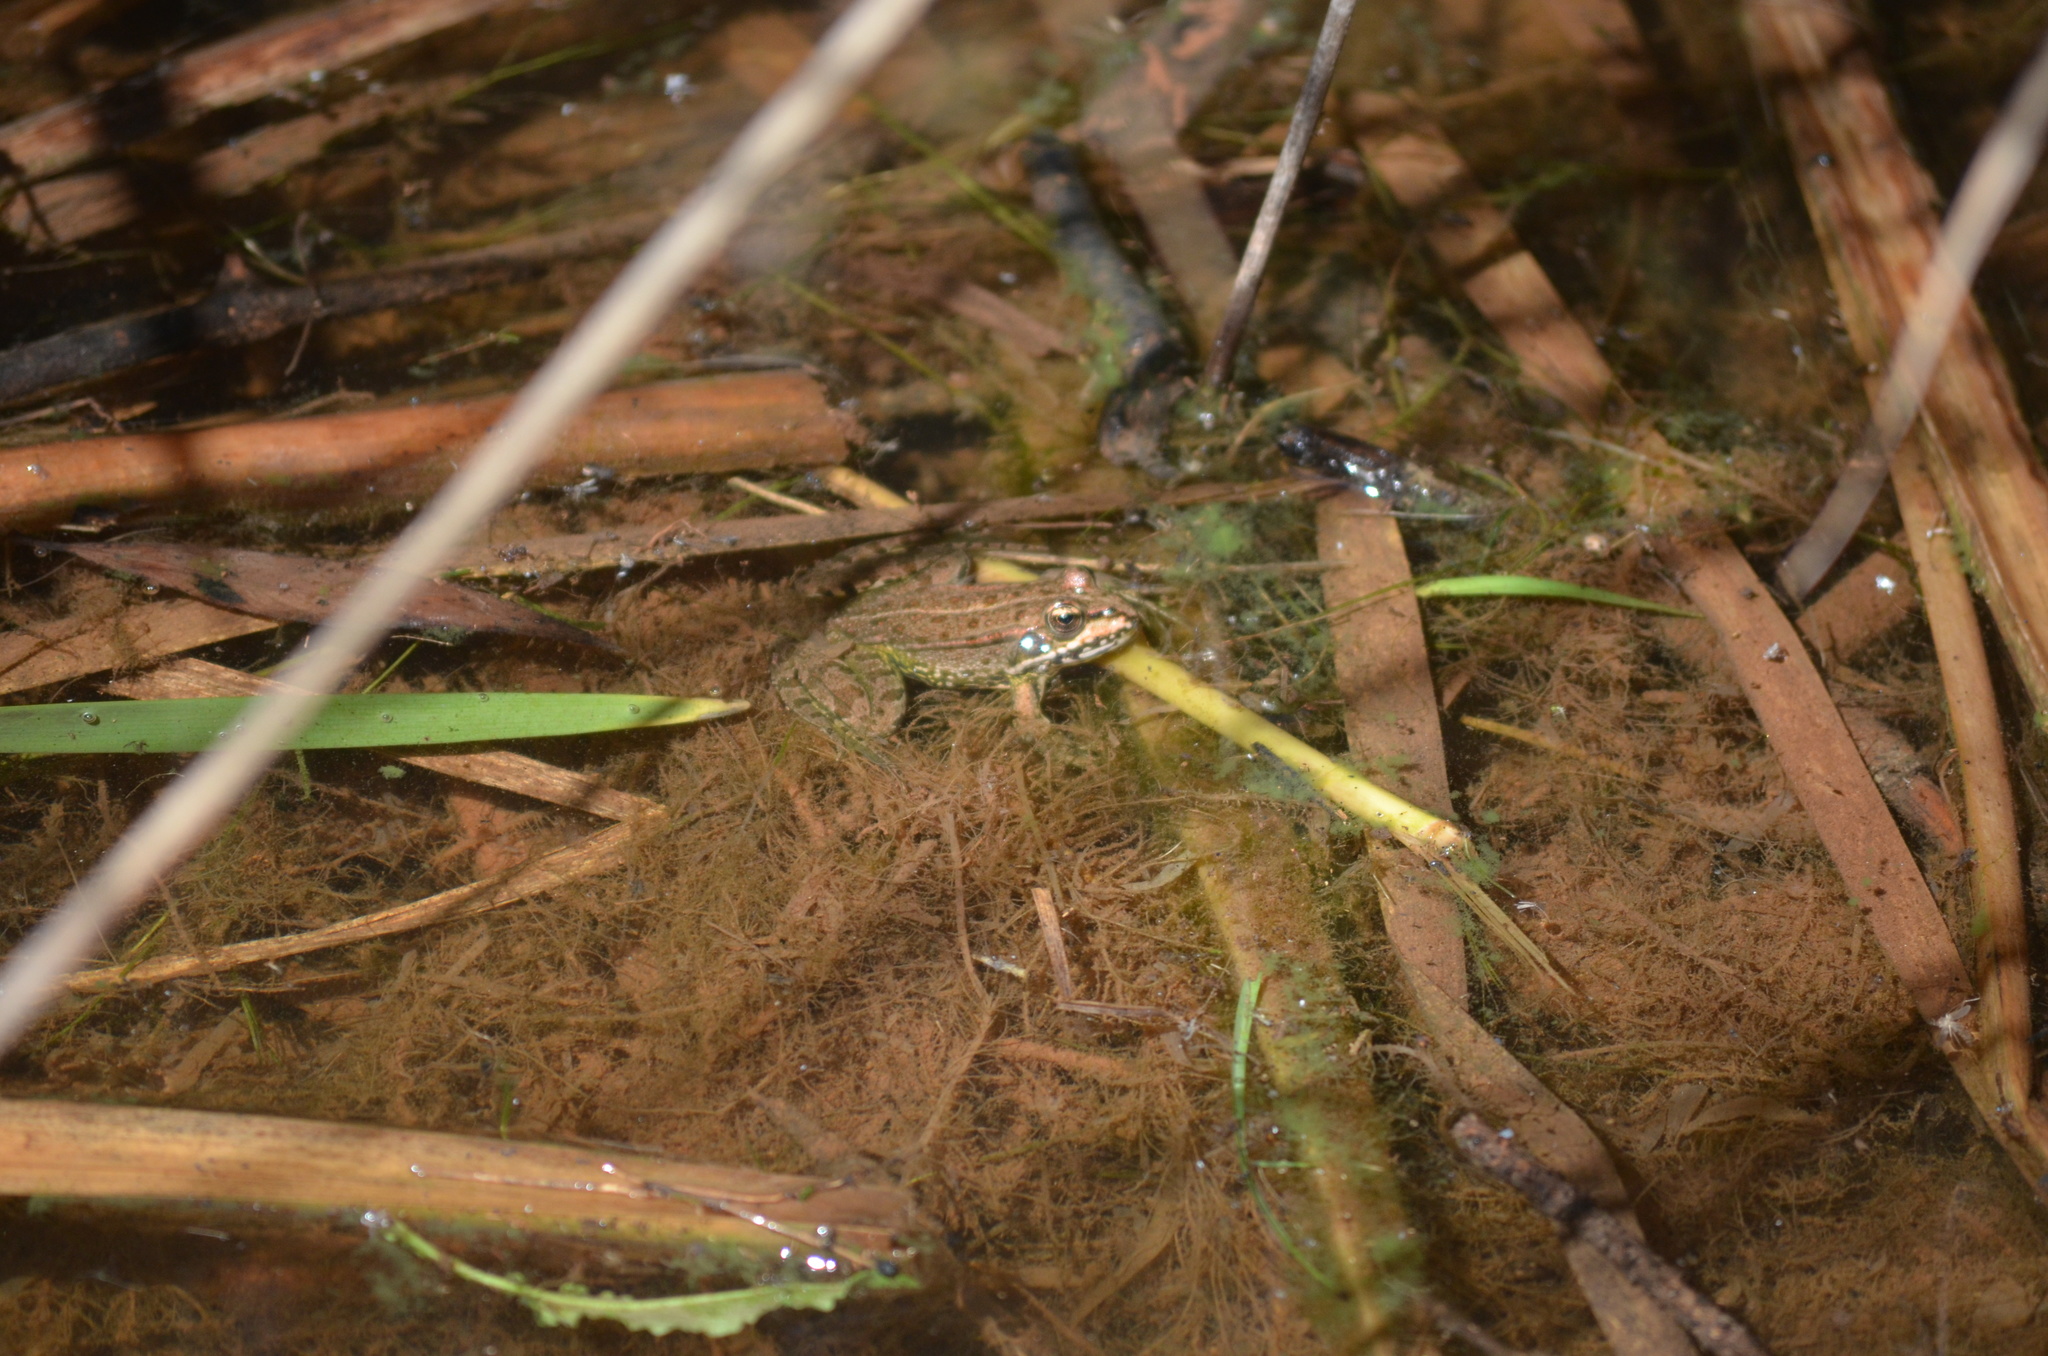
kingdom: Animalia
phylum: Chordata
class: Amphibia
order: Anura
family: Ranidae
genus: Pelophylax
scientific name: Pelophylax perezi
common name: Perez's frog
